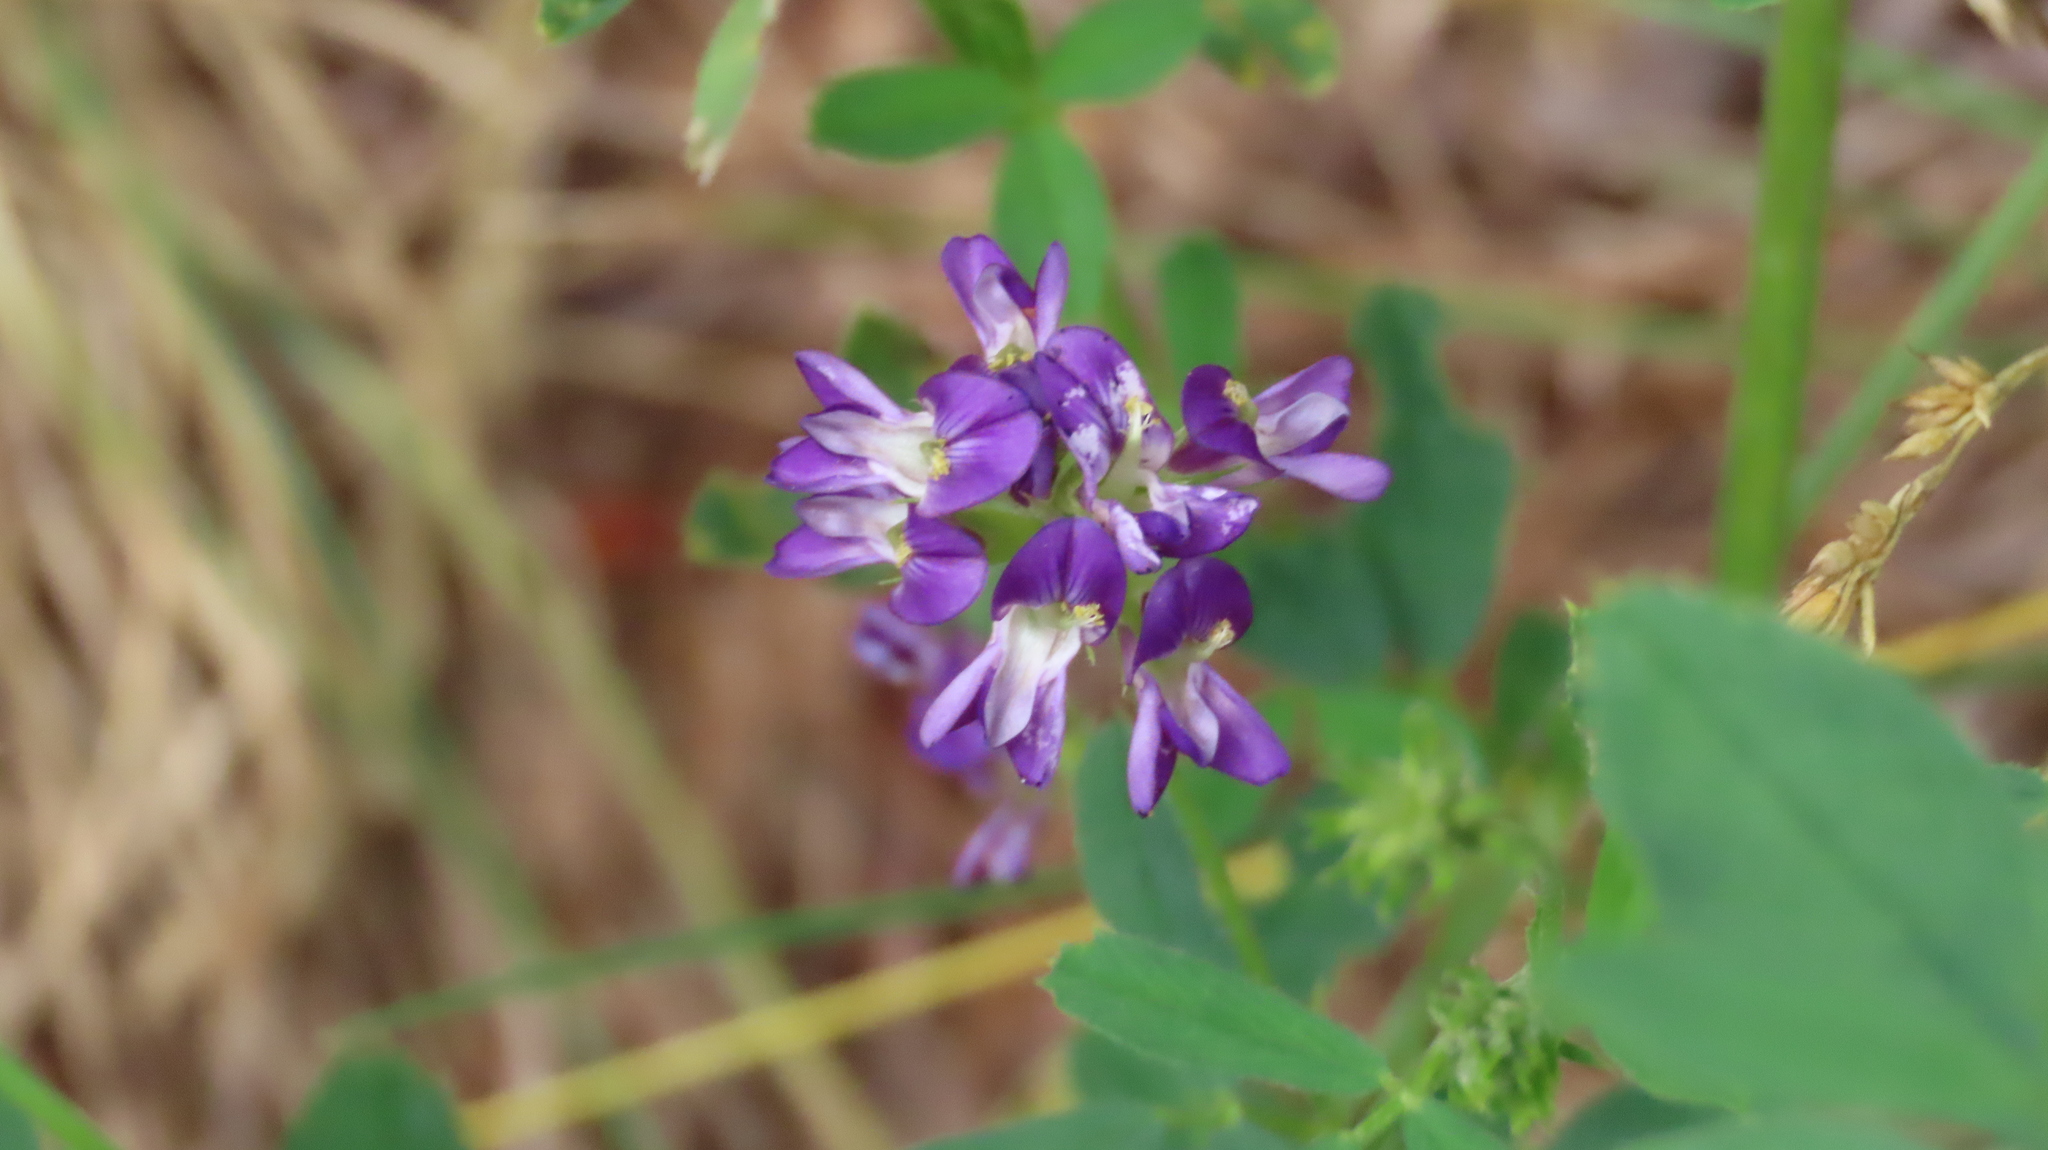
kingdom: Plantae
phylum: Tracheophyta
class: Magnoliopsida
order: Fabales
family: Fabaceae
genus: Medicago
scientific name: Medicago sativa
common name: Alfalfa
